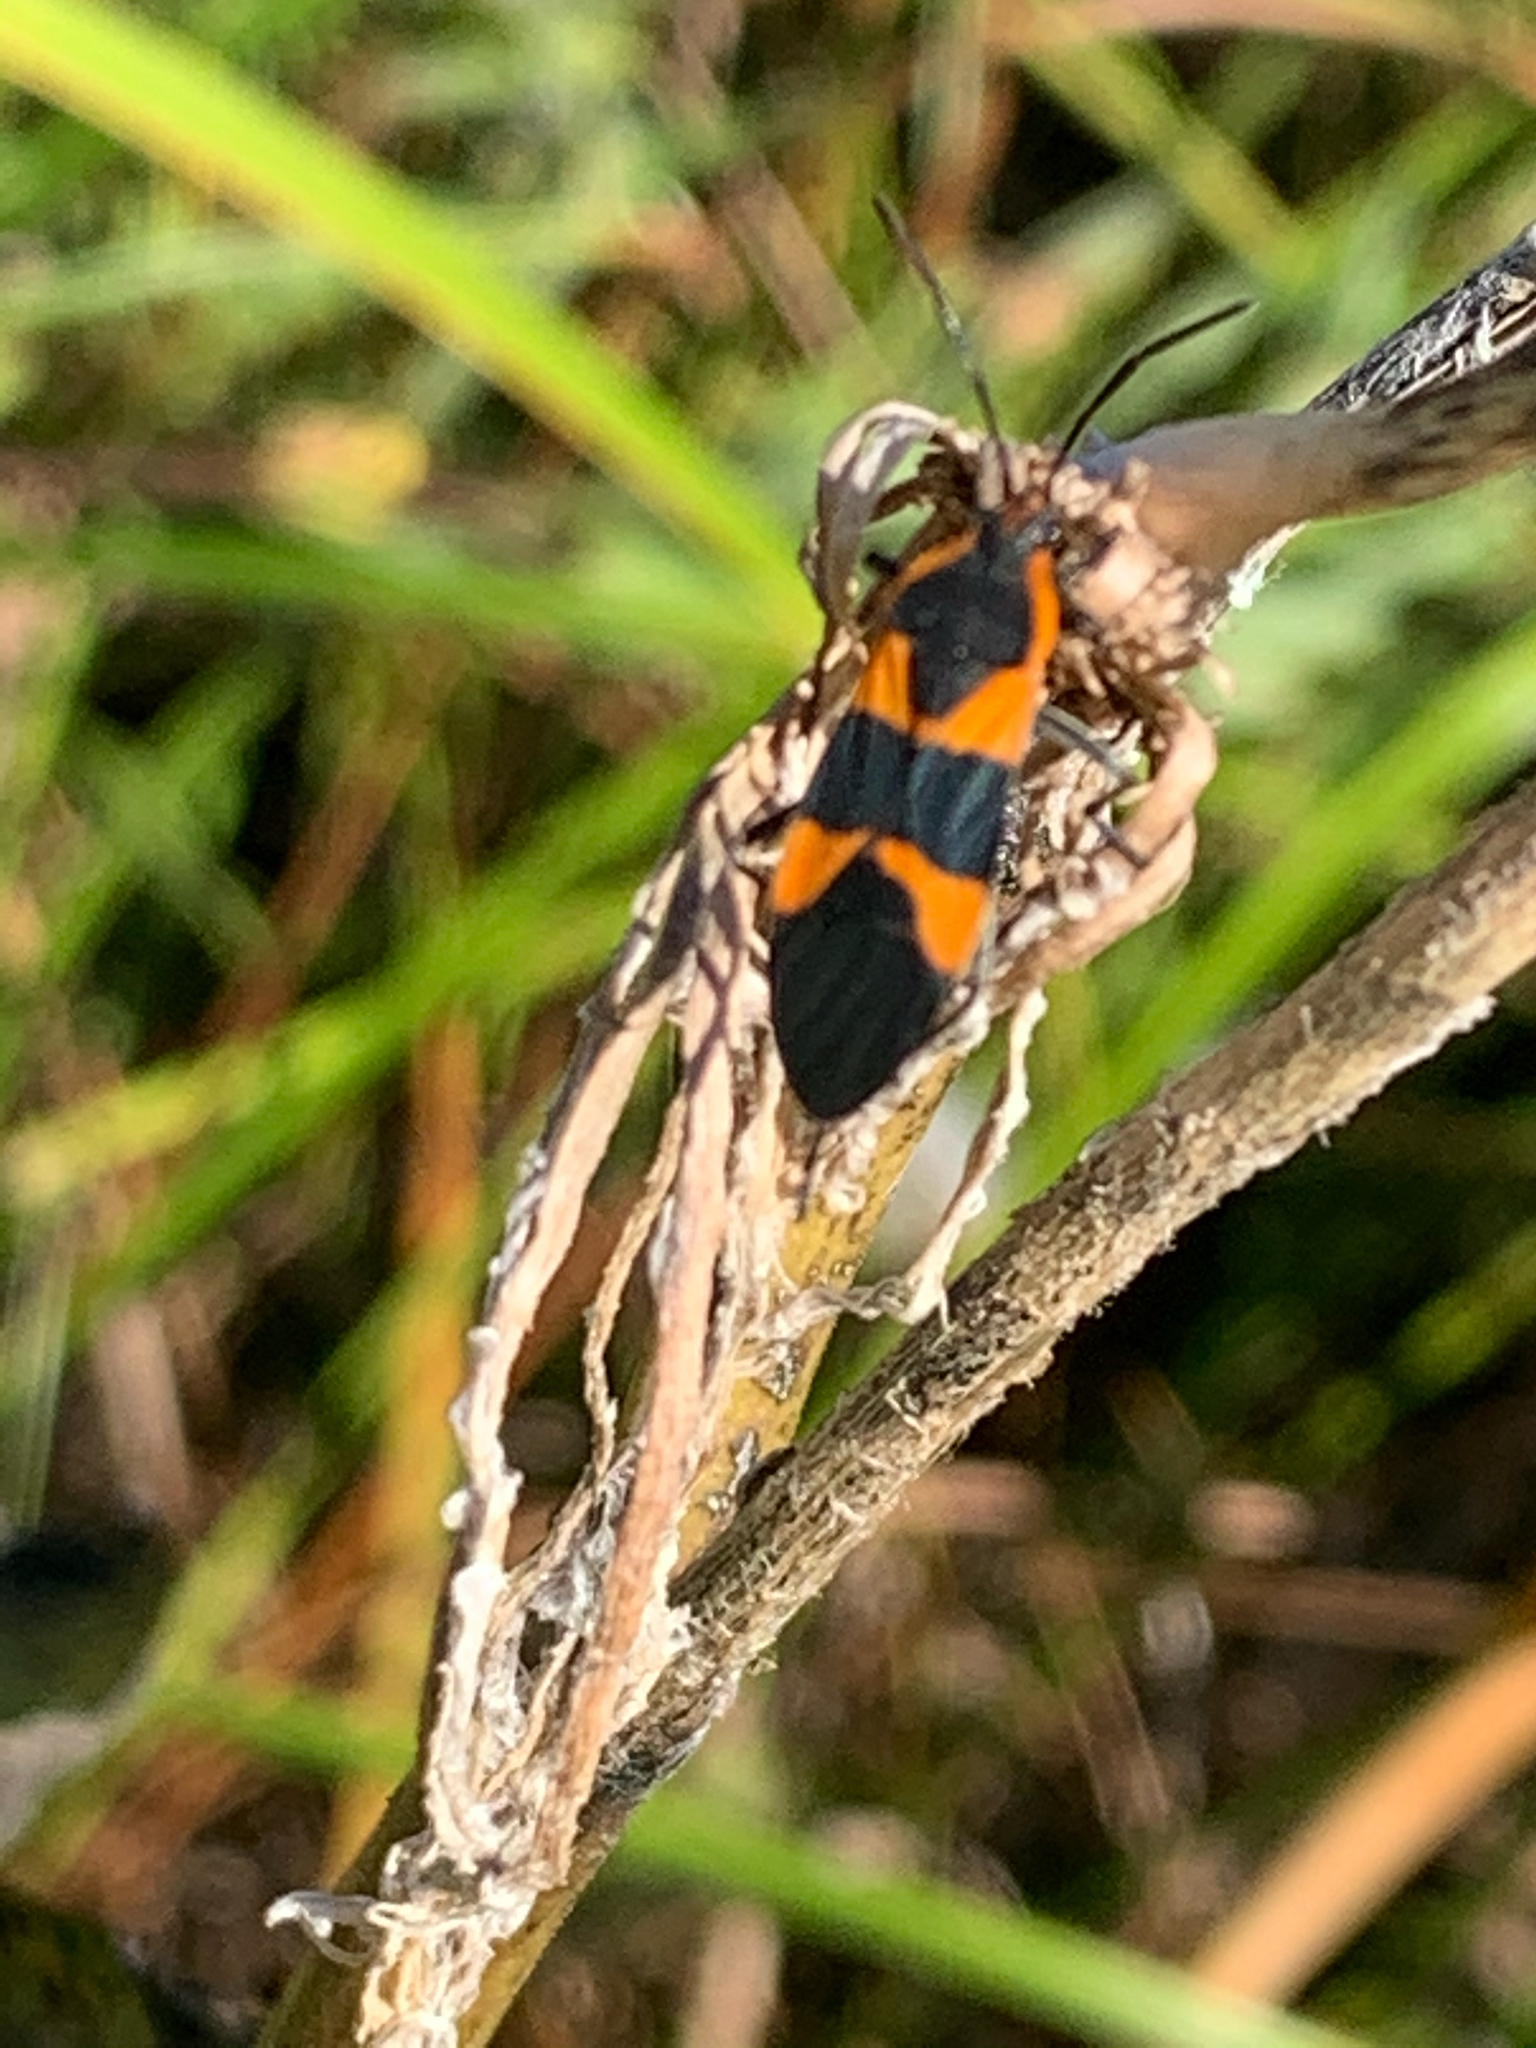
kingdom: Animalia
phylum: Arthropoda
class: Insecta
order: Hemiptera
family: Lygaeidae
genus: Oncopeltus
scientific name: Oncopeltus fasciatus
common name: Large milkweed bug
